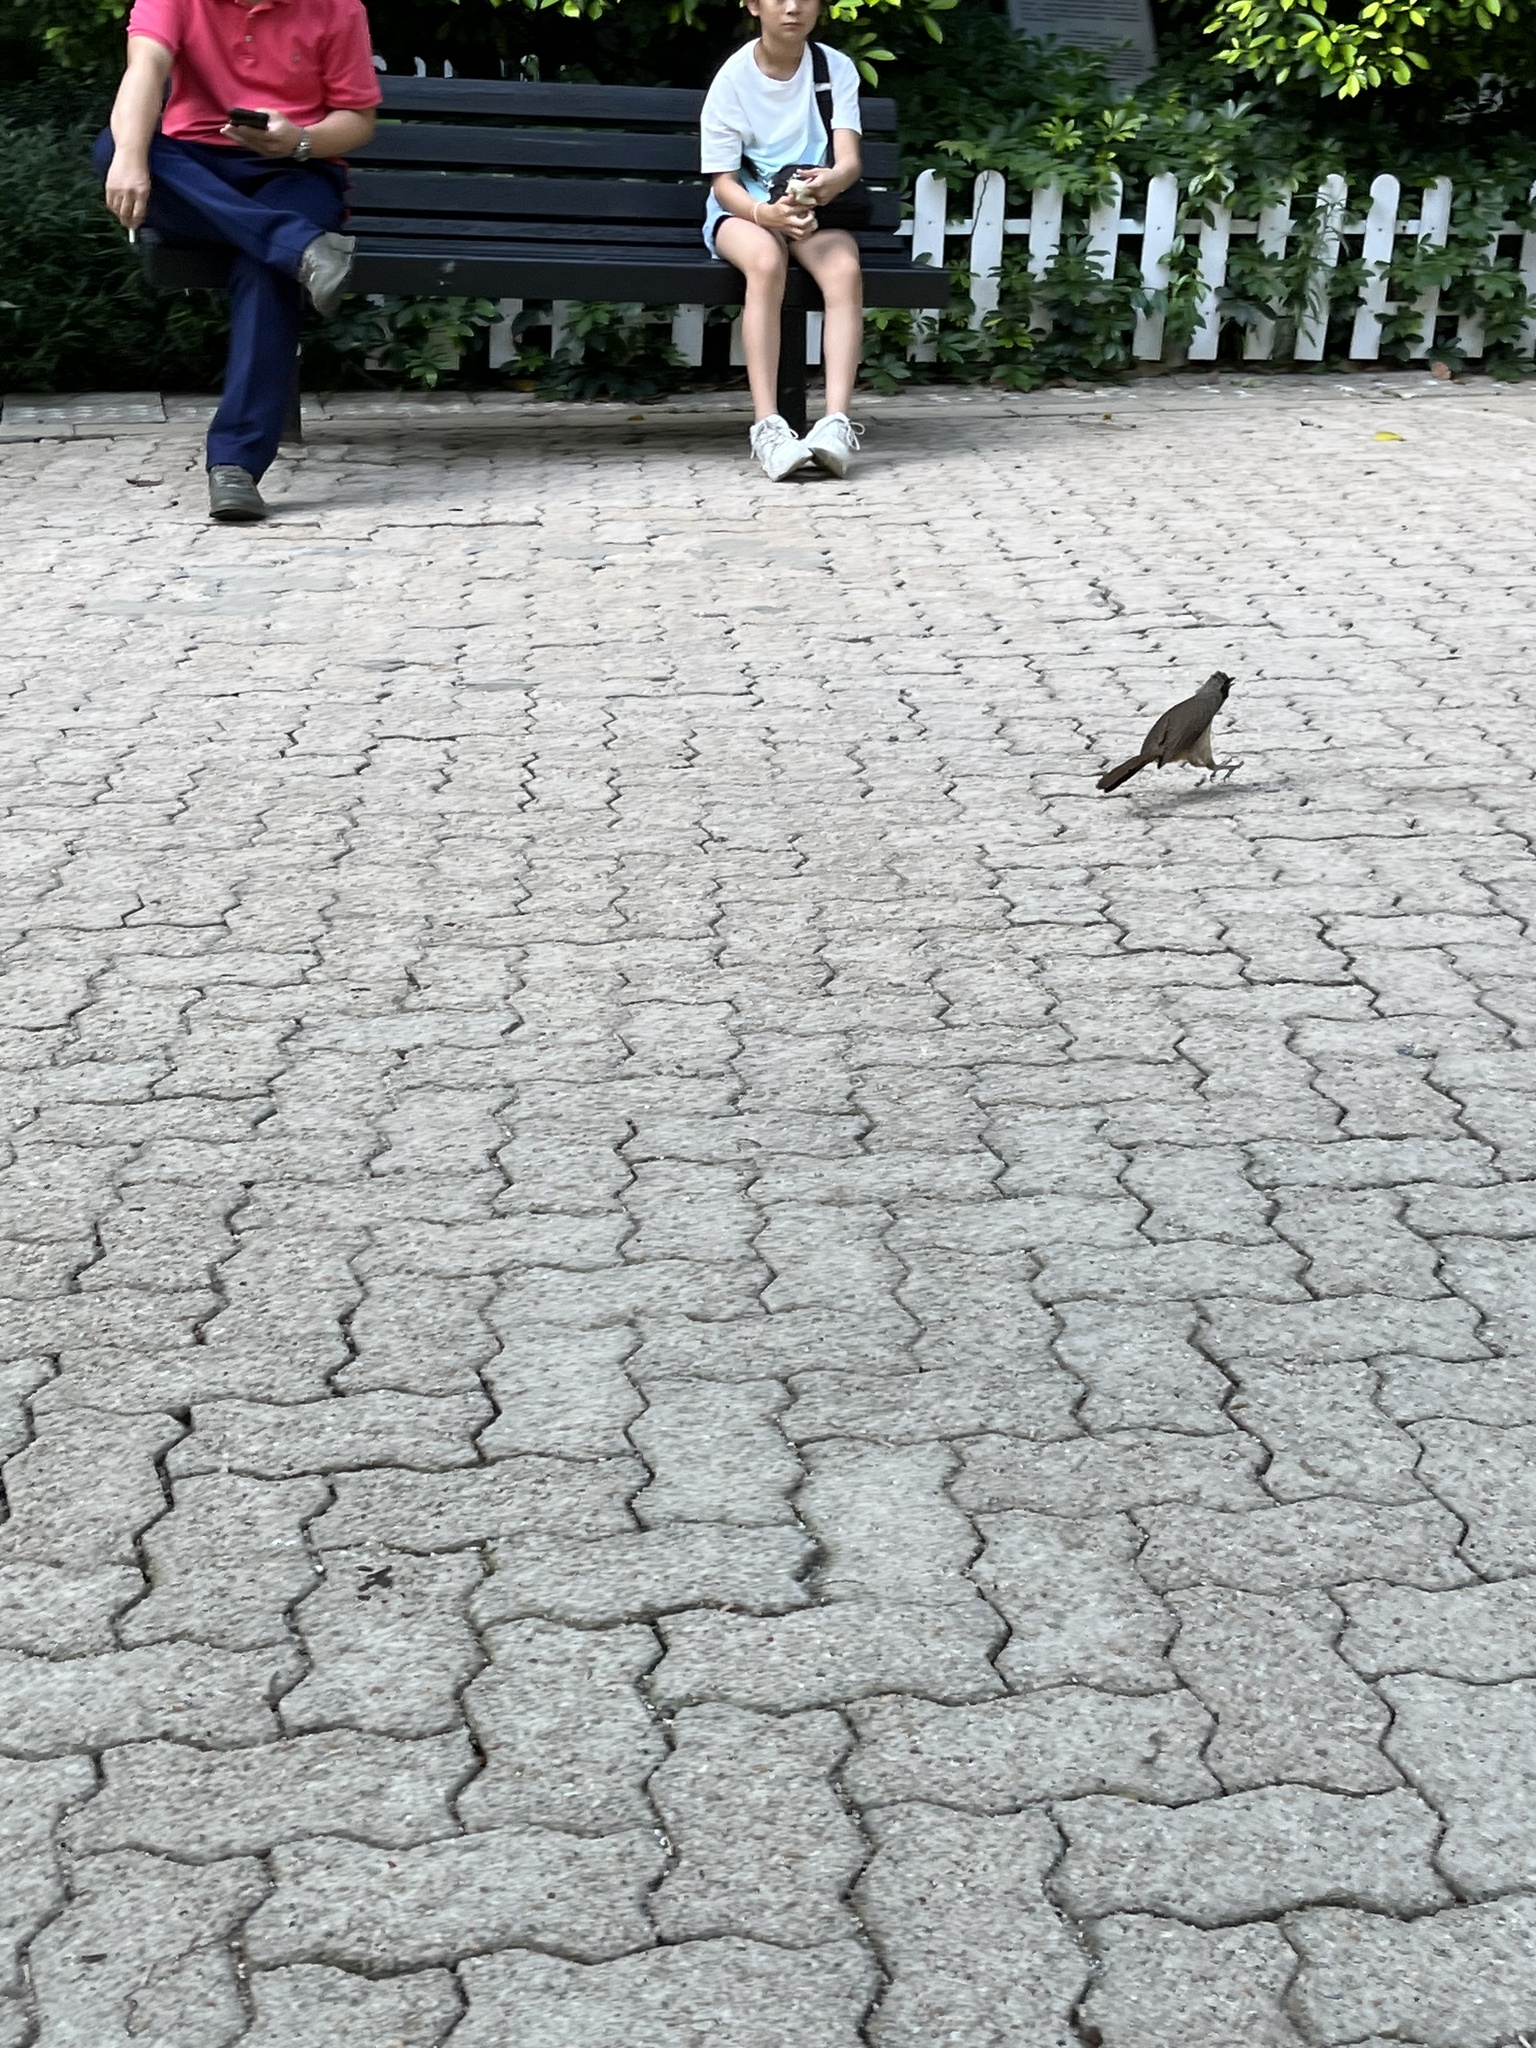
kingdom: Animalia
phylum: Chordata
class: Aves
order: Passeriformes
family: Leiothrichidae
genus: Garrulax
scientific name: Garrulax perspicillatus
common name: Masked laughingthrush
